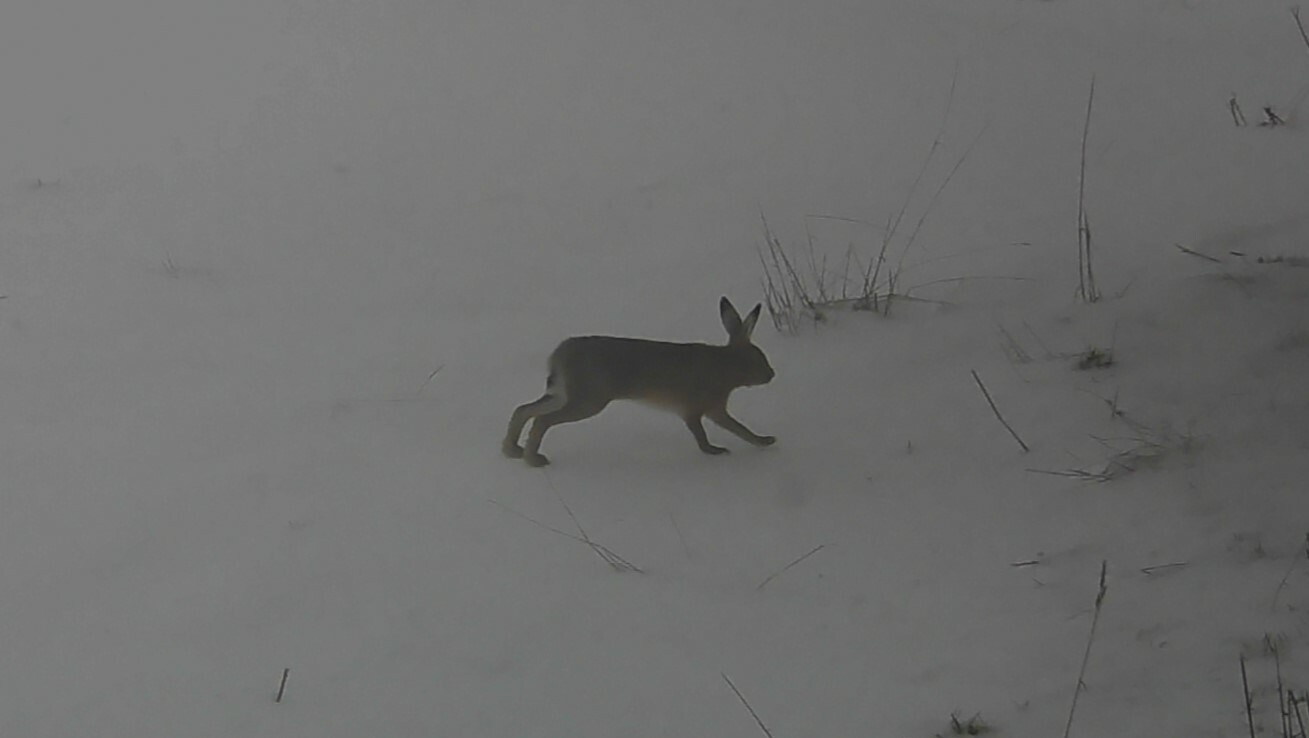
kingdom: Animalia
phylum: Chordata
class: Mammalia
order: Lagomorpha
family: Leporidae
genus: Lepus
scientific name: Lepus europaeus
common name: European hare
